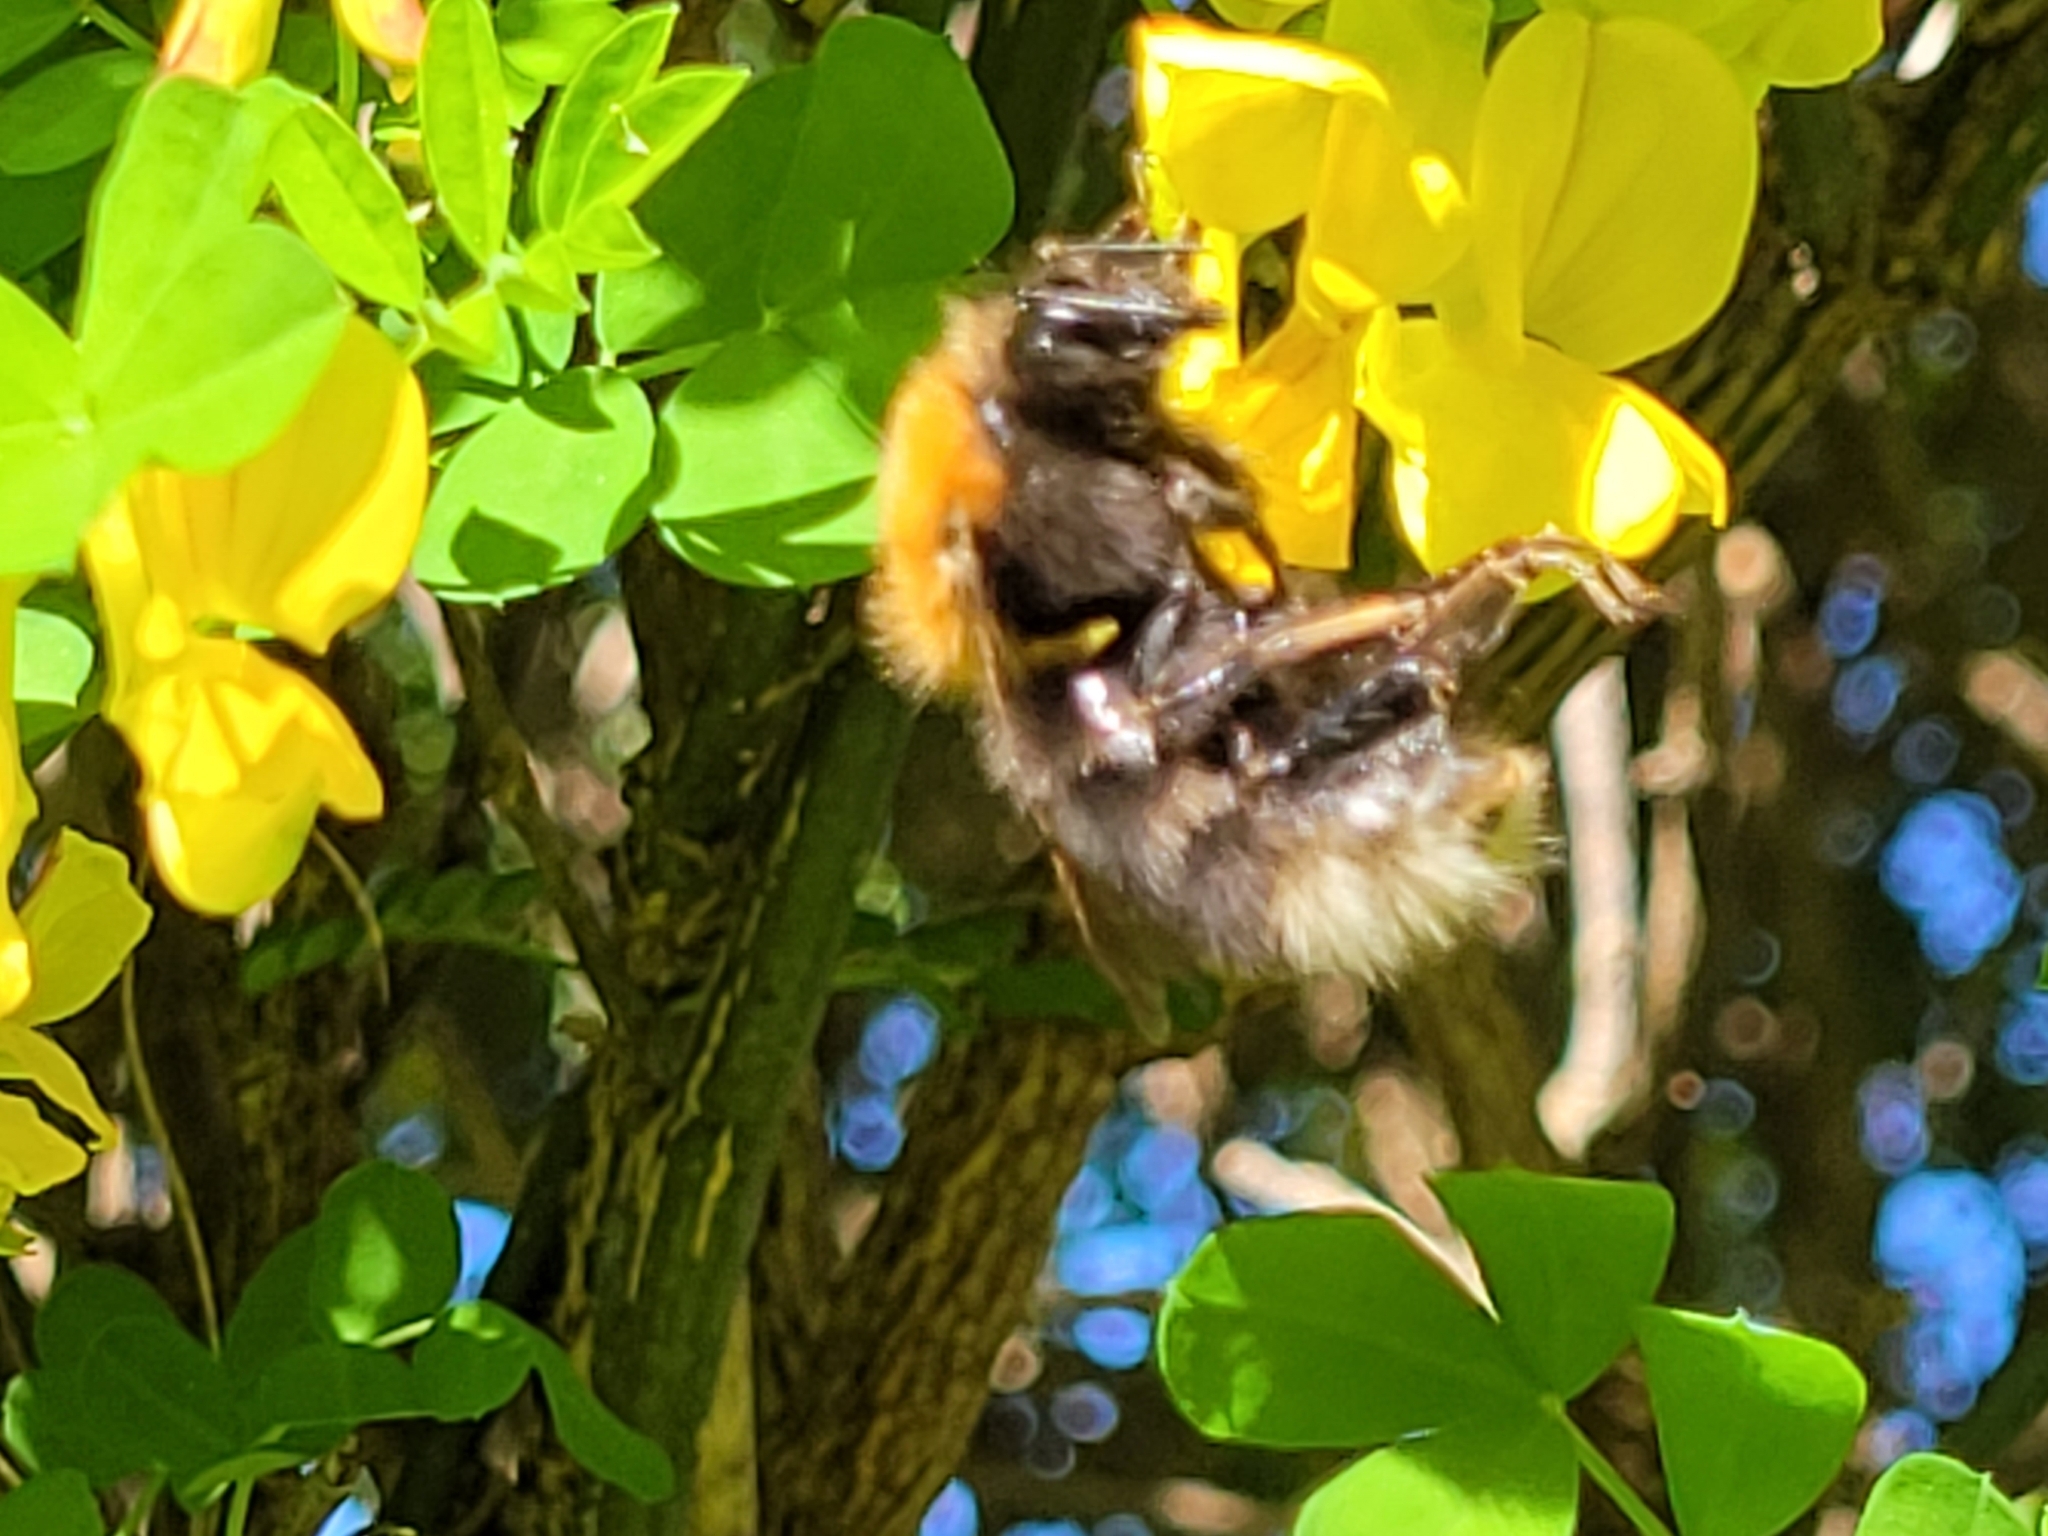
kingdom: Animalia
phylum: Arthropoda
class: Insecta
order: Hymenoptera
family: Apidae
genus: Bombus
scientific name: Bombus hypnorum
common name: New garden bumblebee
